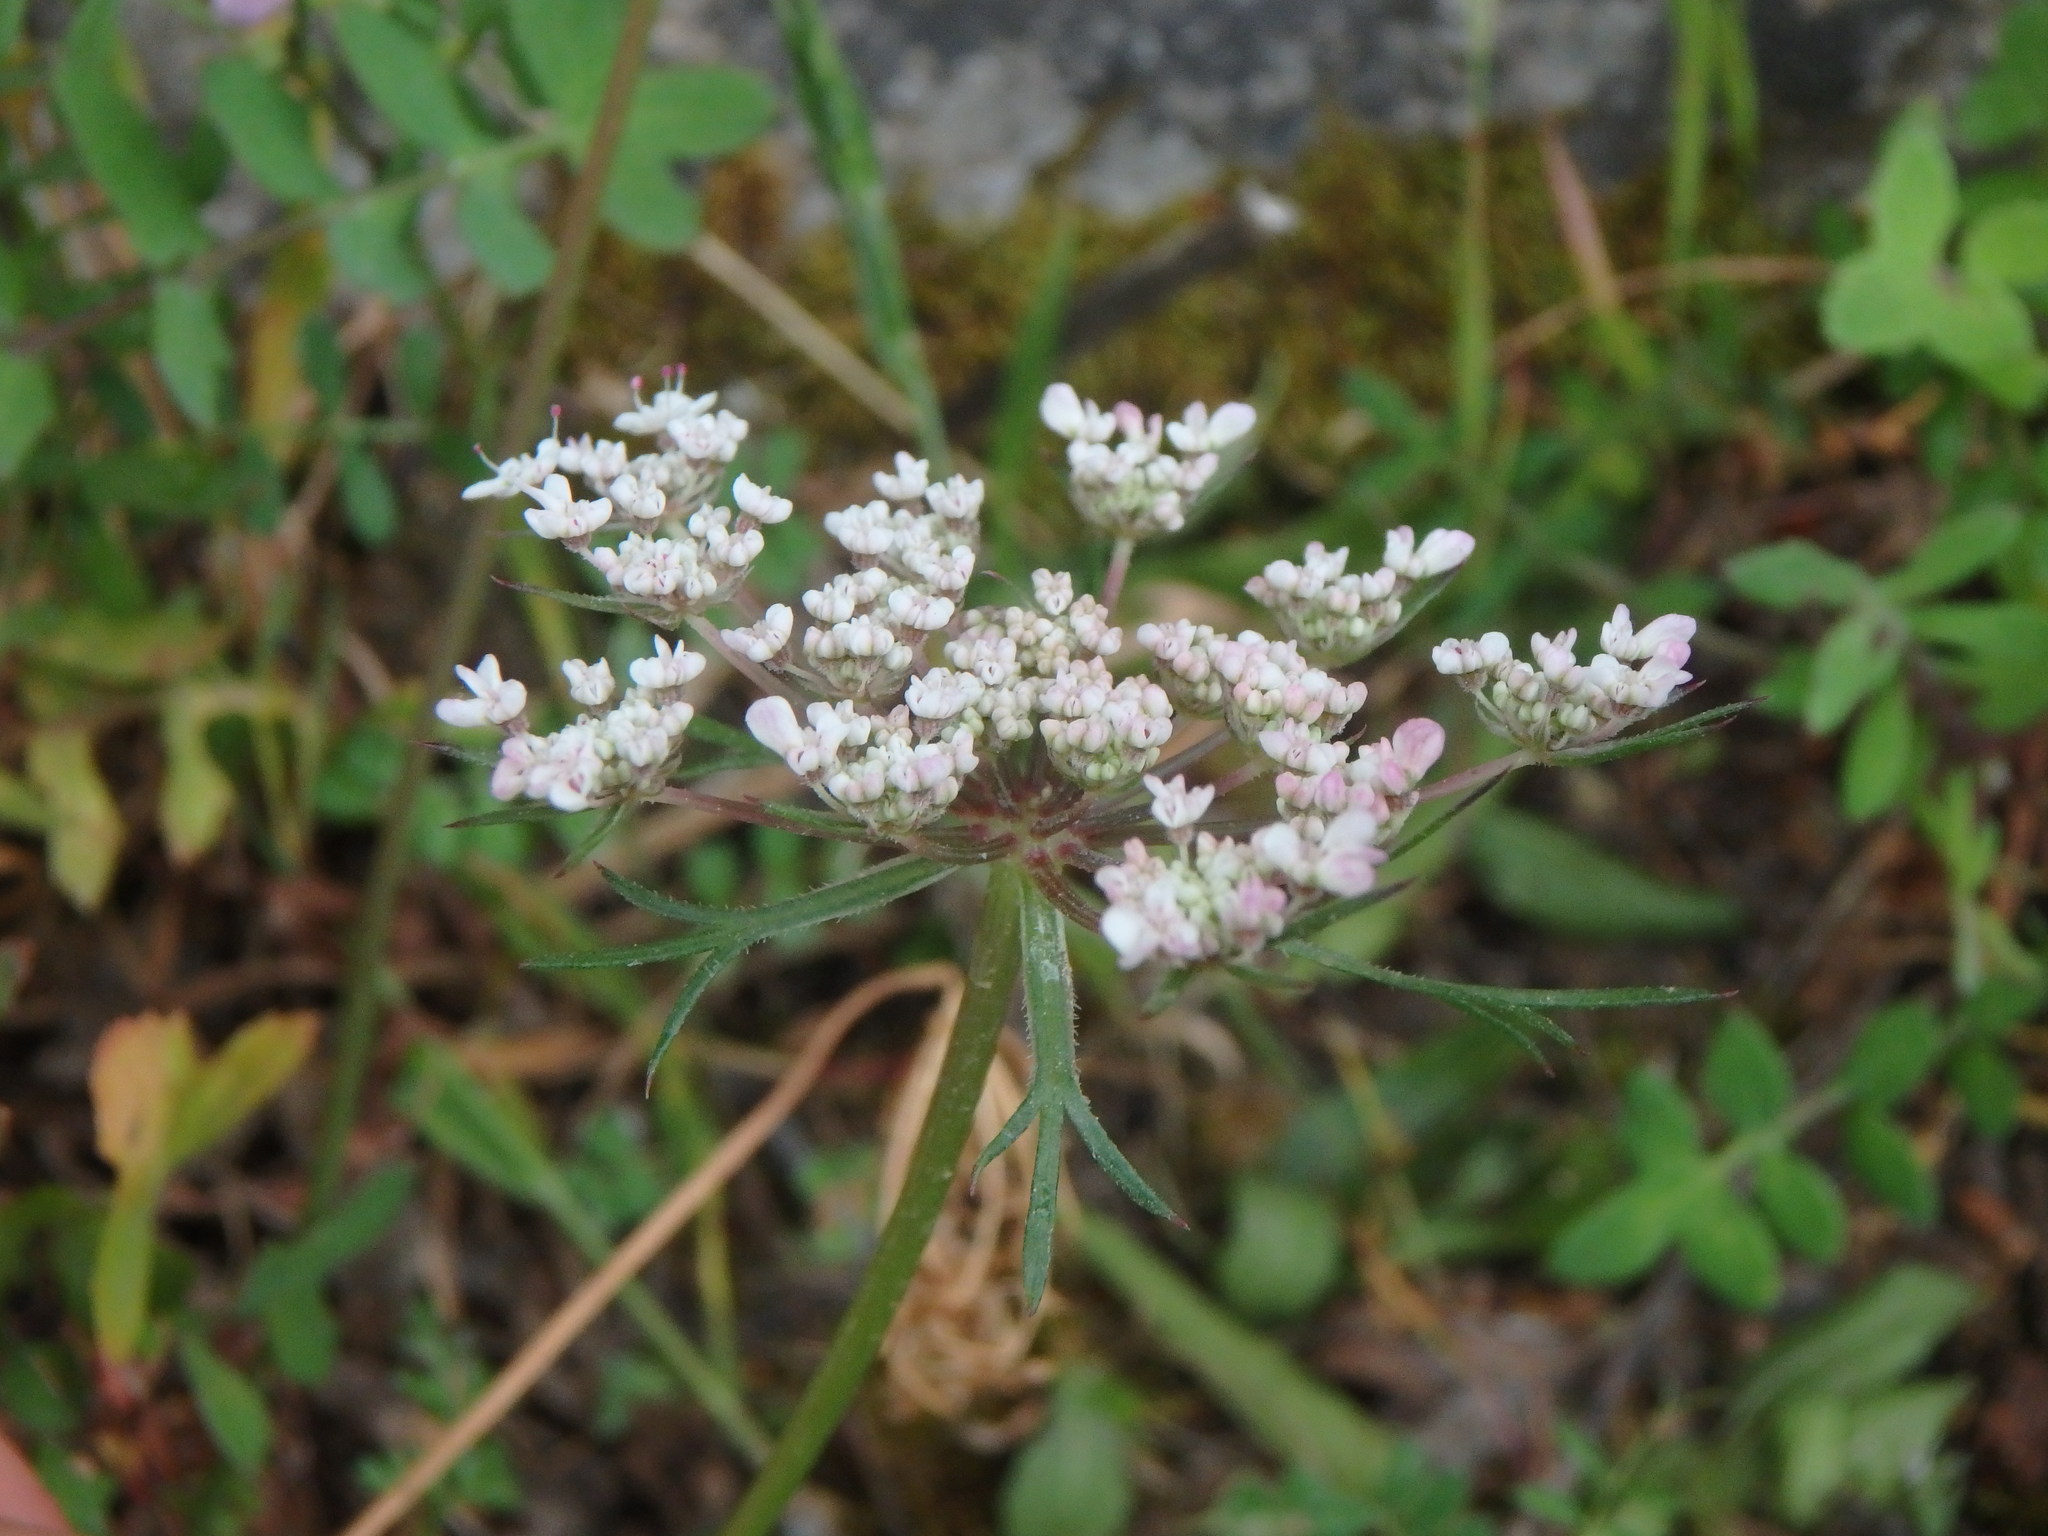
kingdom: Plantae
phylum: Tracheophyta
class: Magnoliopsida
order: Apiales
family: Apiaceae
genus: Daucus
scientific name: Daucus carota
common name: Wild carrot
